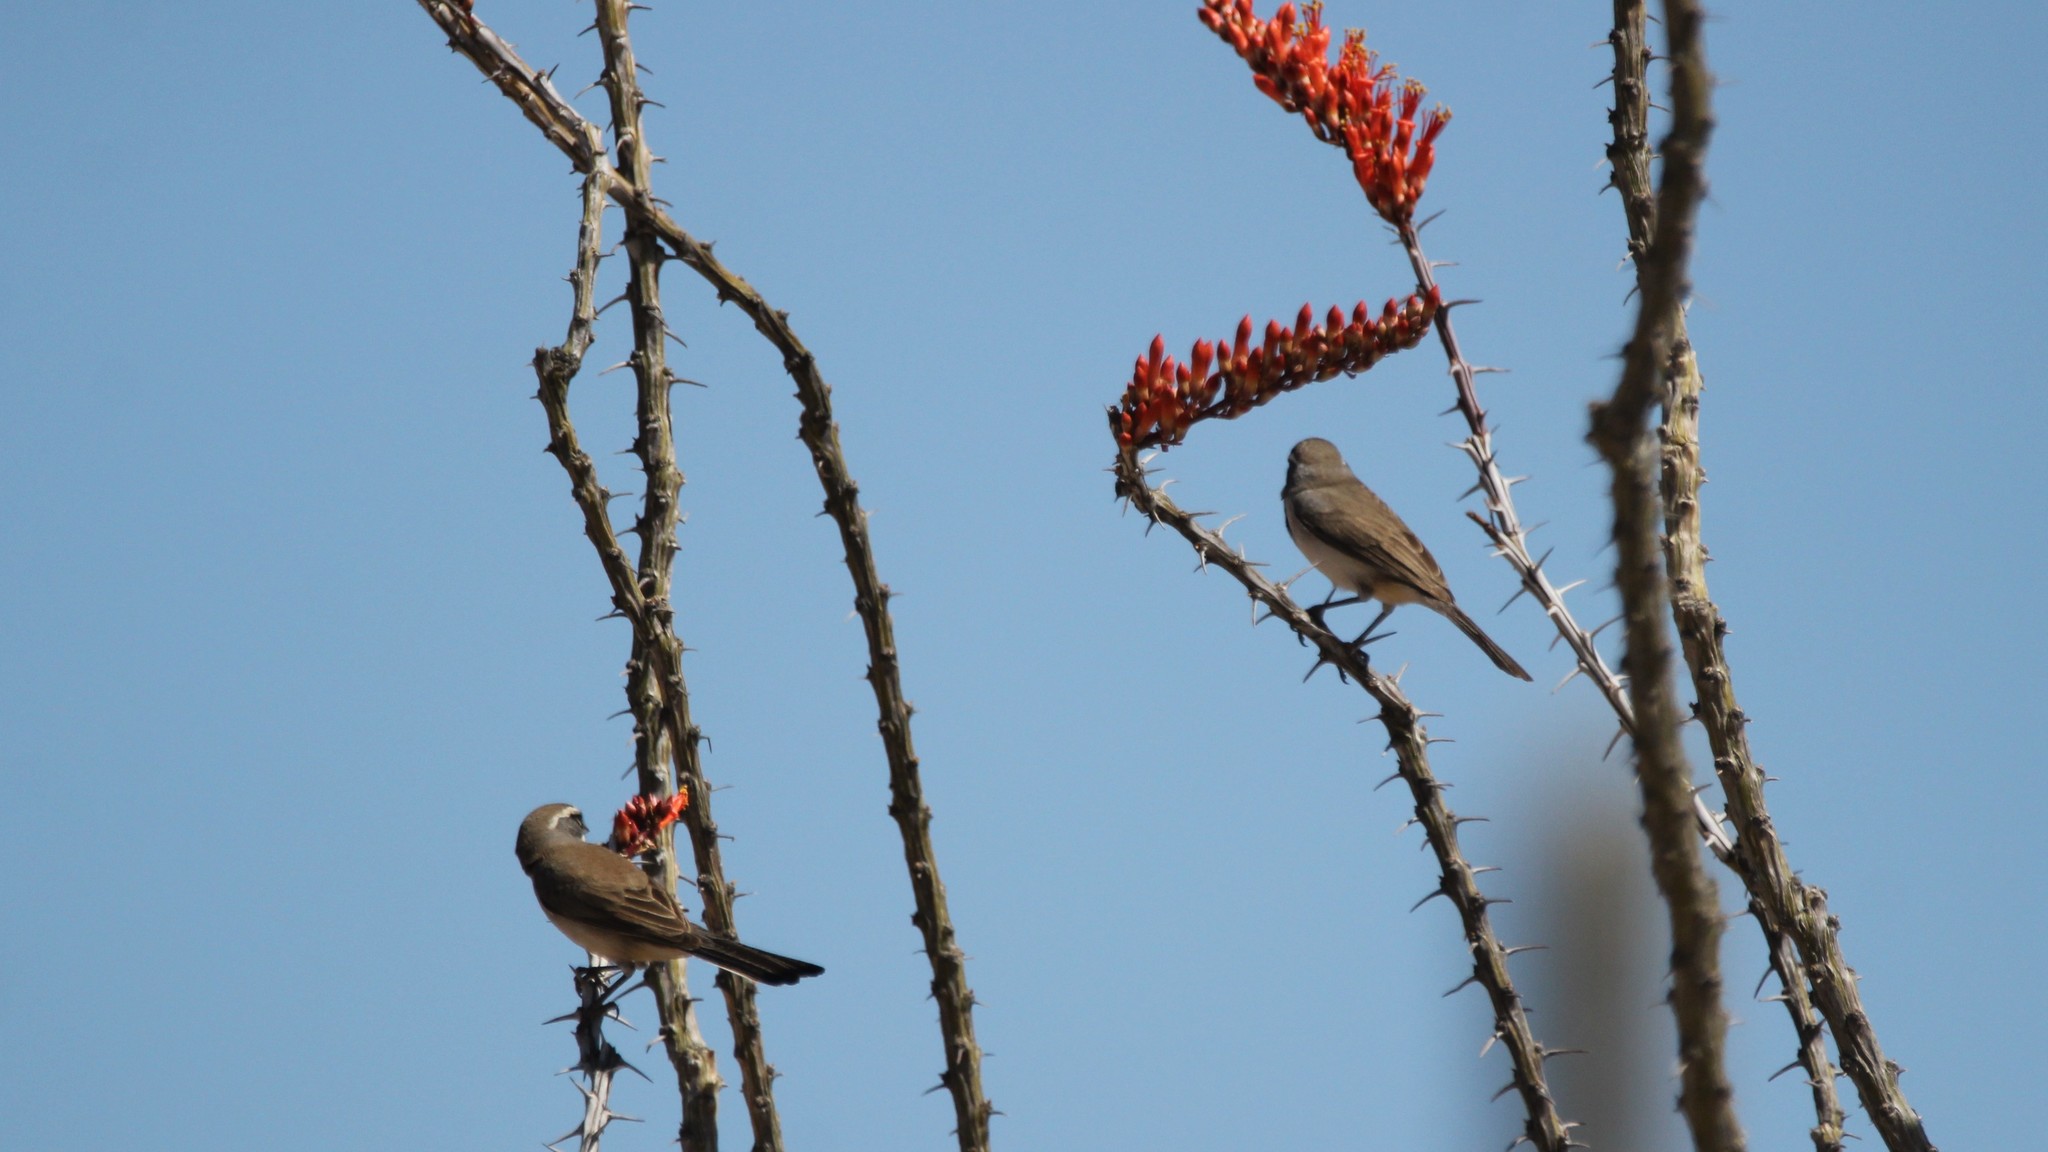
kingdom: Animalia
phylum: Chordata
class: Aves
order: Passeriformes
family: Passerellidae
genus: Amphispiza
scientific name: Amphispiza bilineata
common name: Black-throated sparrow
